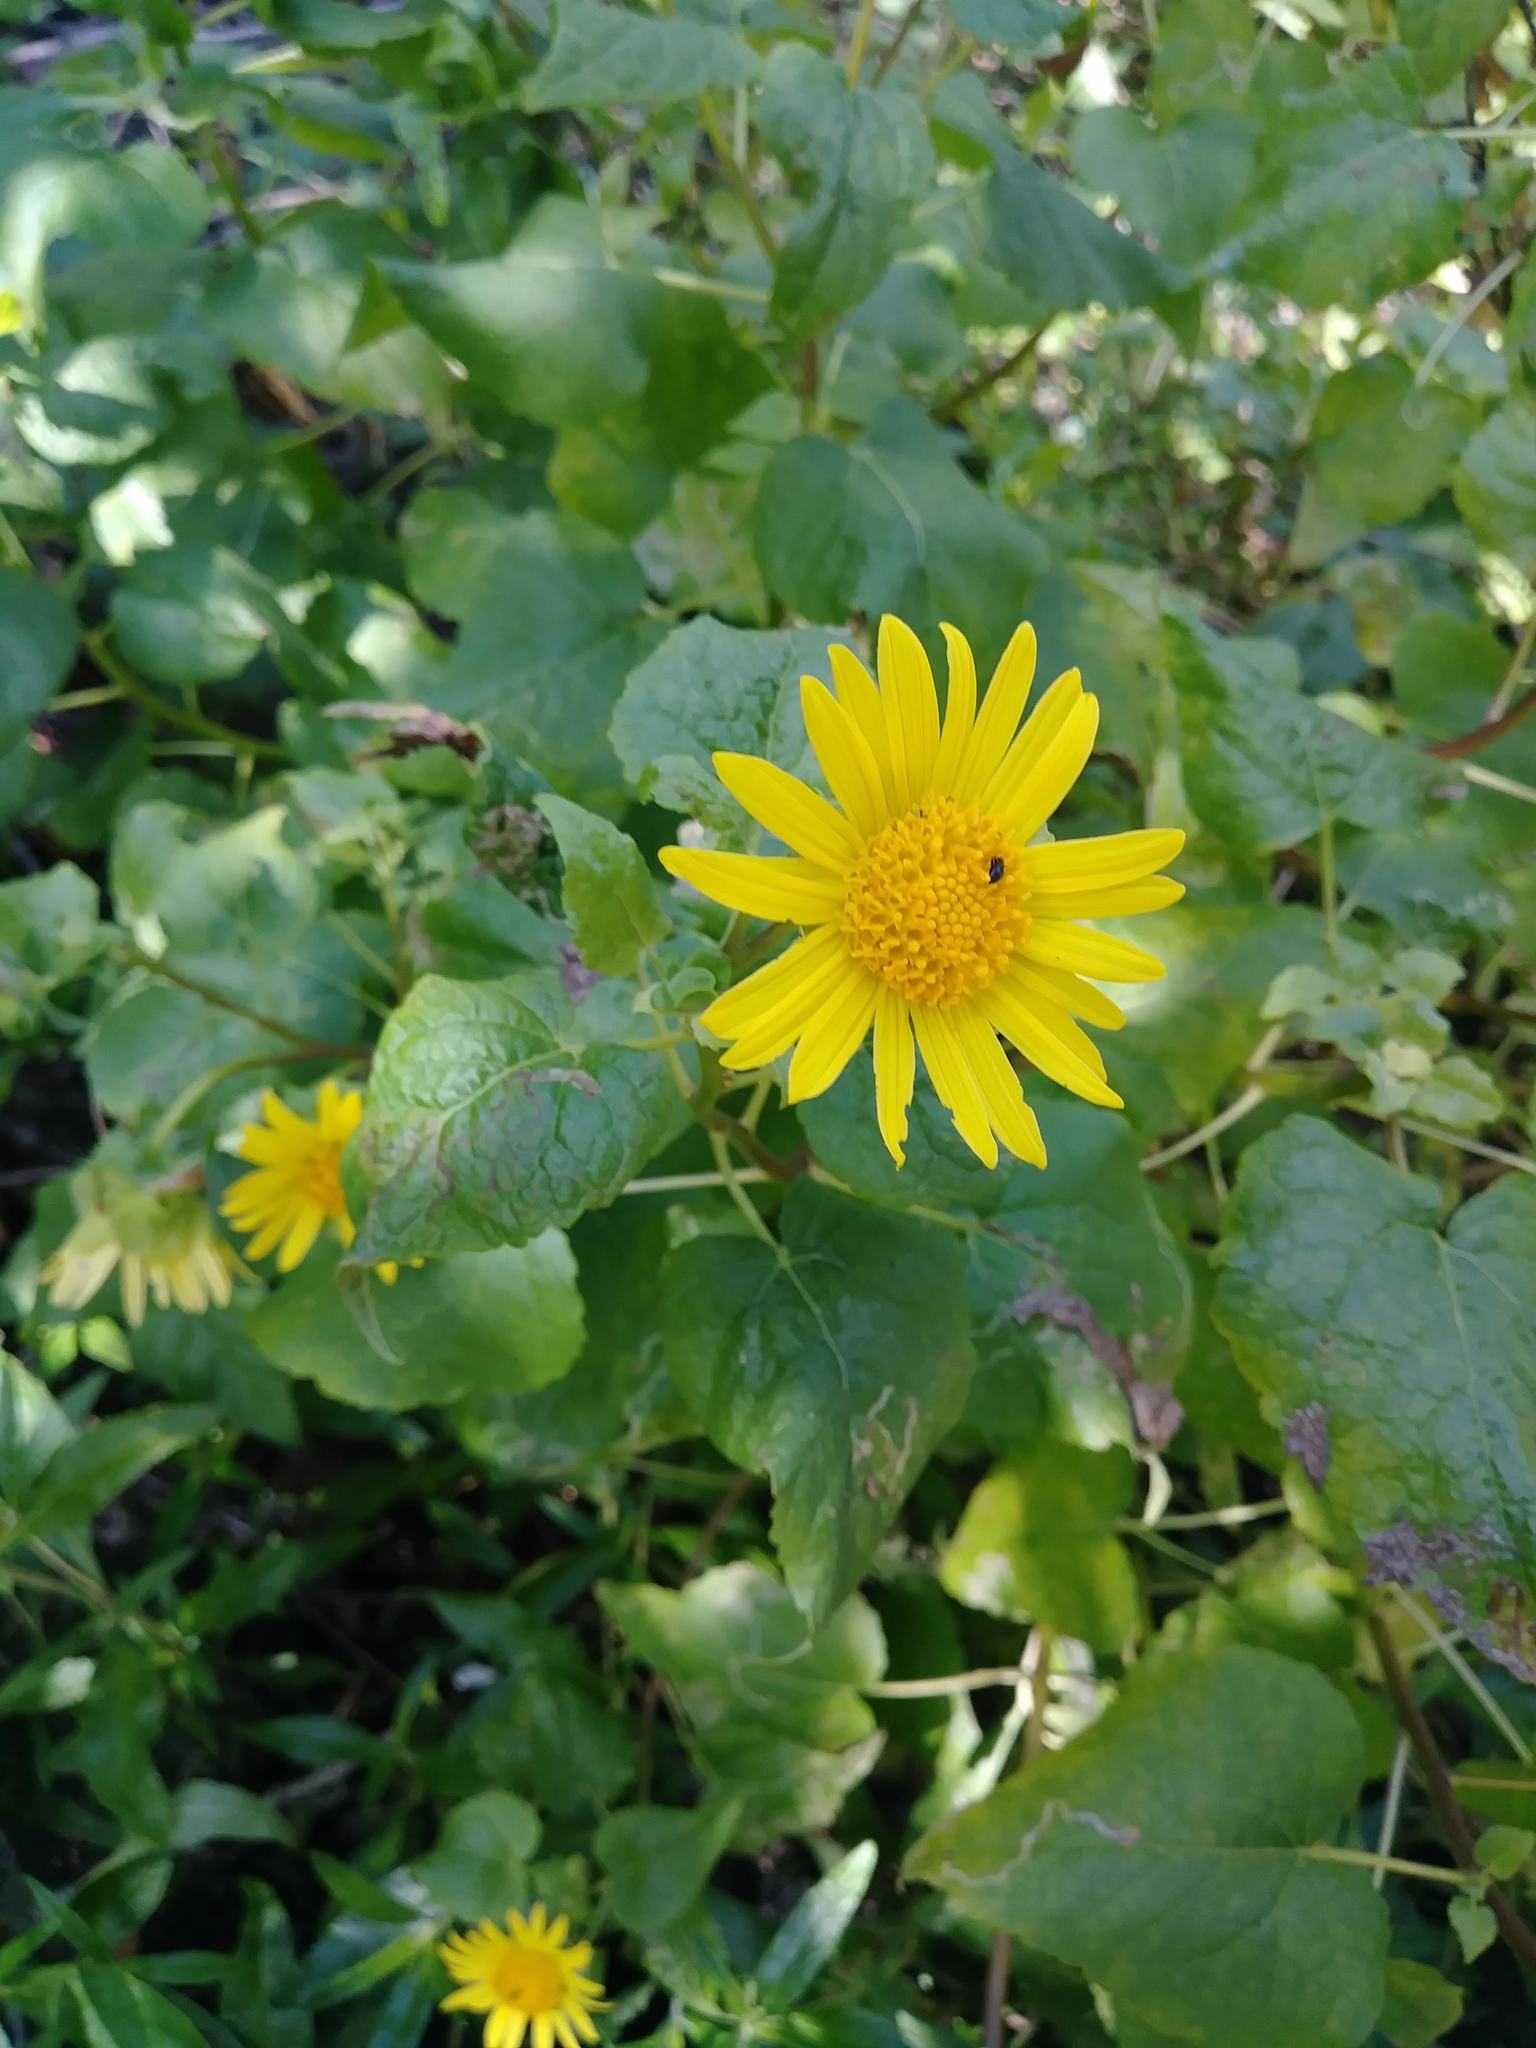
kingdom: Plantae
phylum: Tracheophyta
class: Magnoliopsida
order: Asterales
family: Asteraceae
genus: Venegasia
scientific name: Venegasia carpesioides
